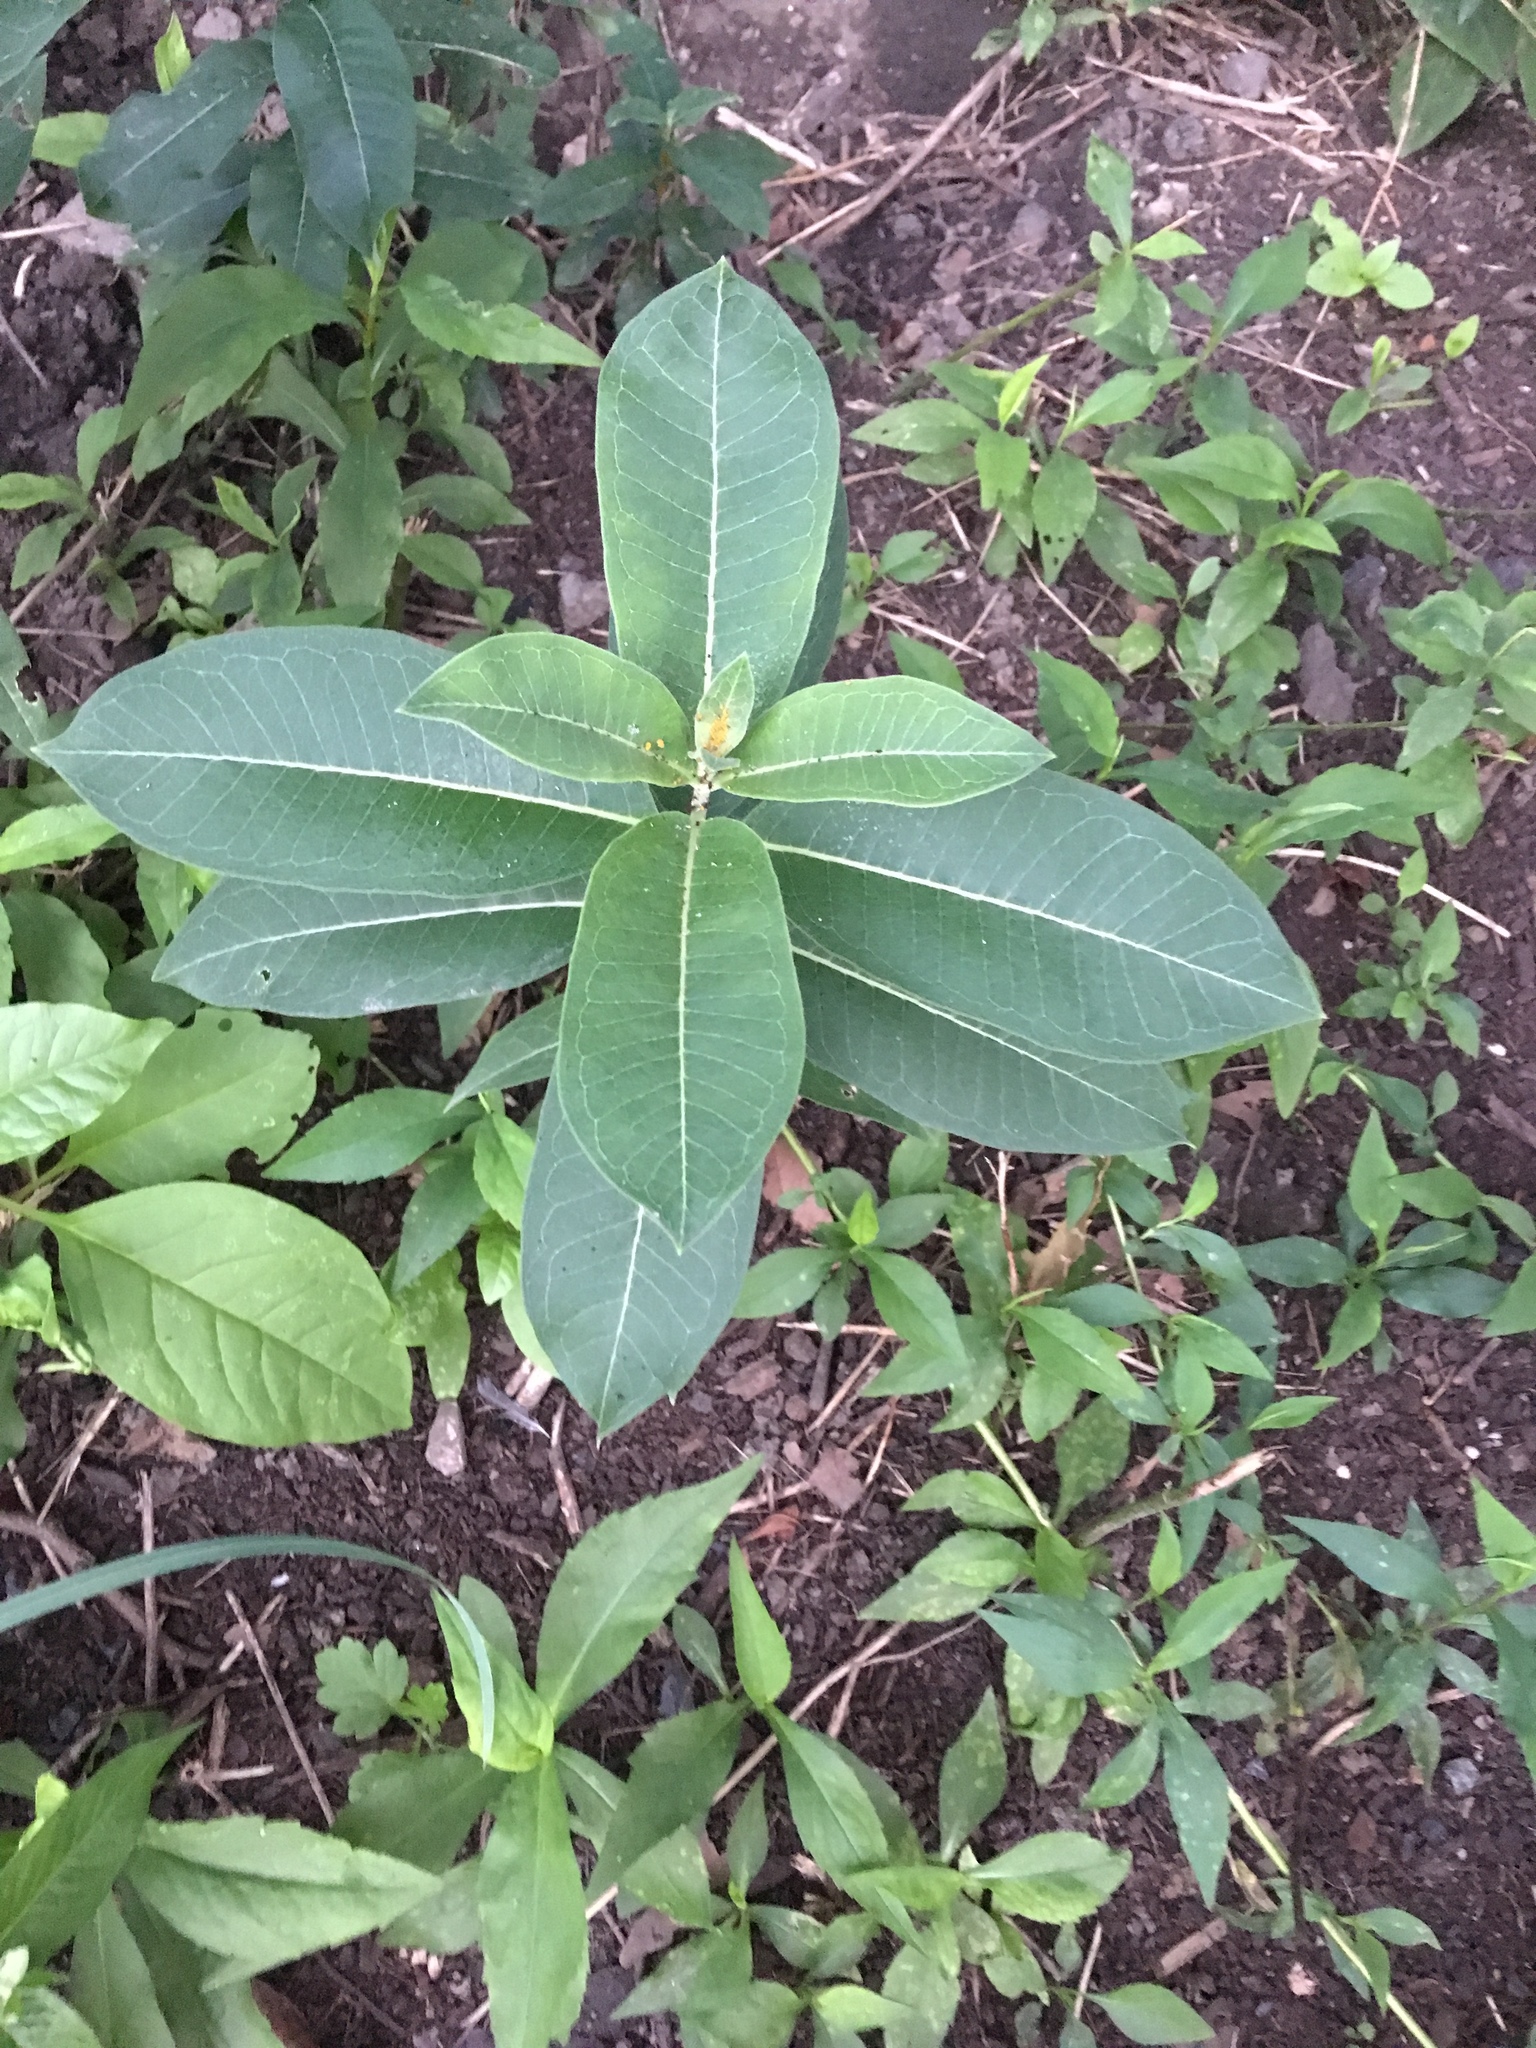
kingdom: Plantae
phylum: Tracheophyta
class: Magnoliopsida
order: Gentianales
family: Apocynaceae
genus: Asclepias
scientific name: Asclepias syriaca
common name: Common milkweed
